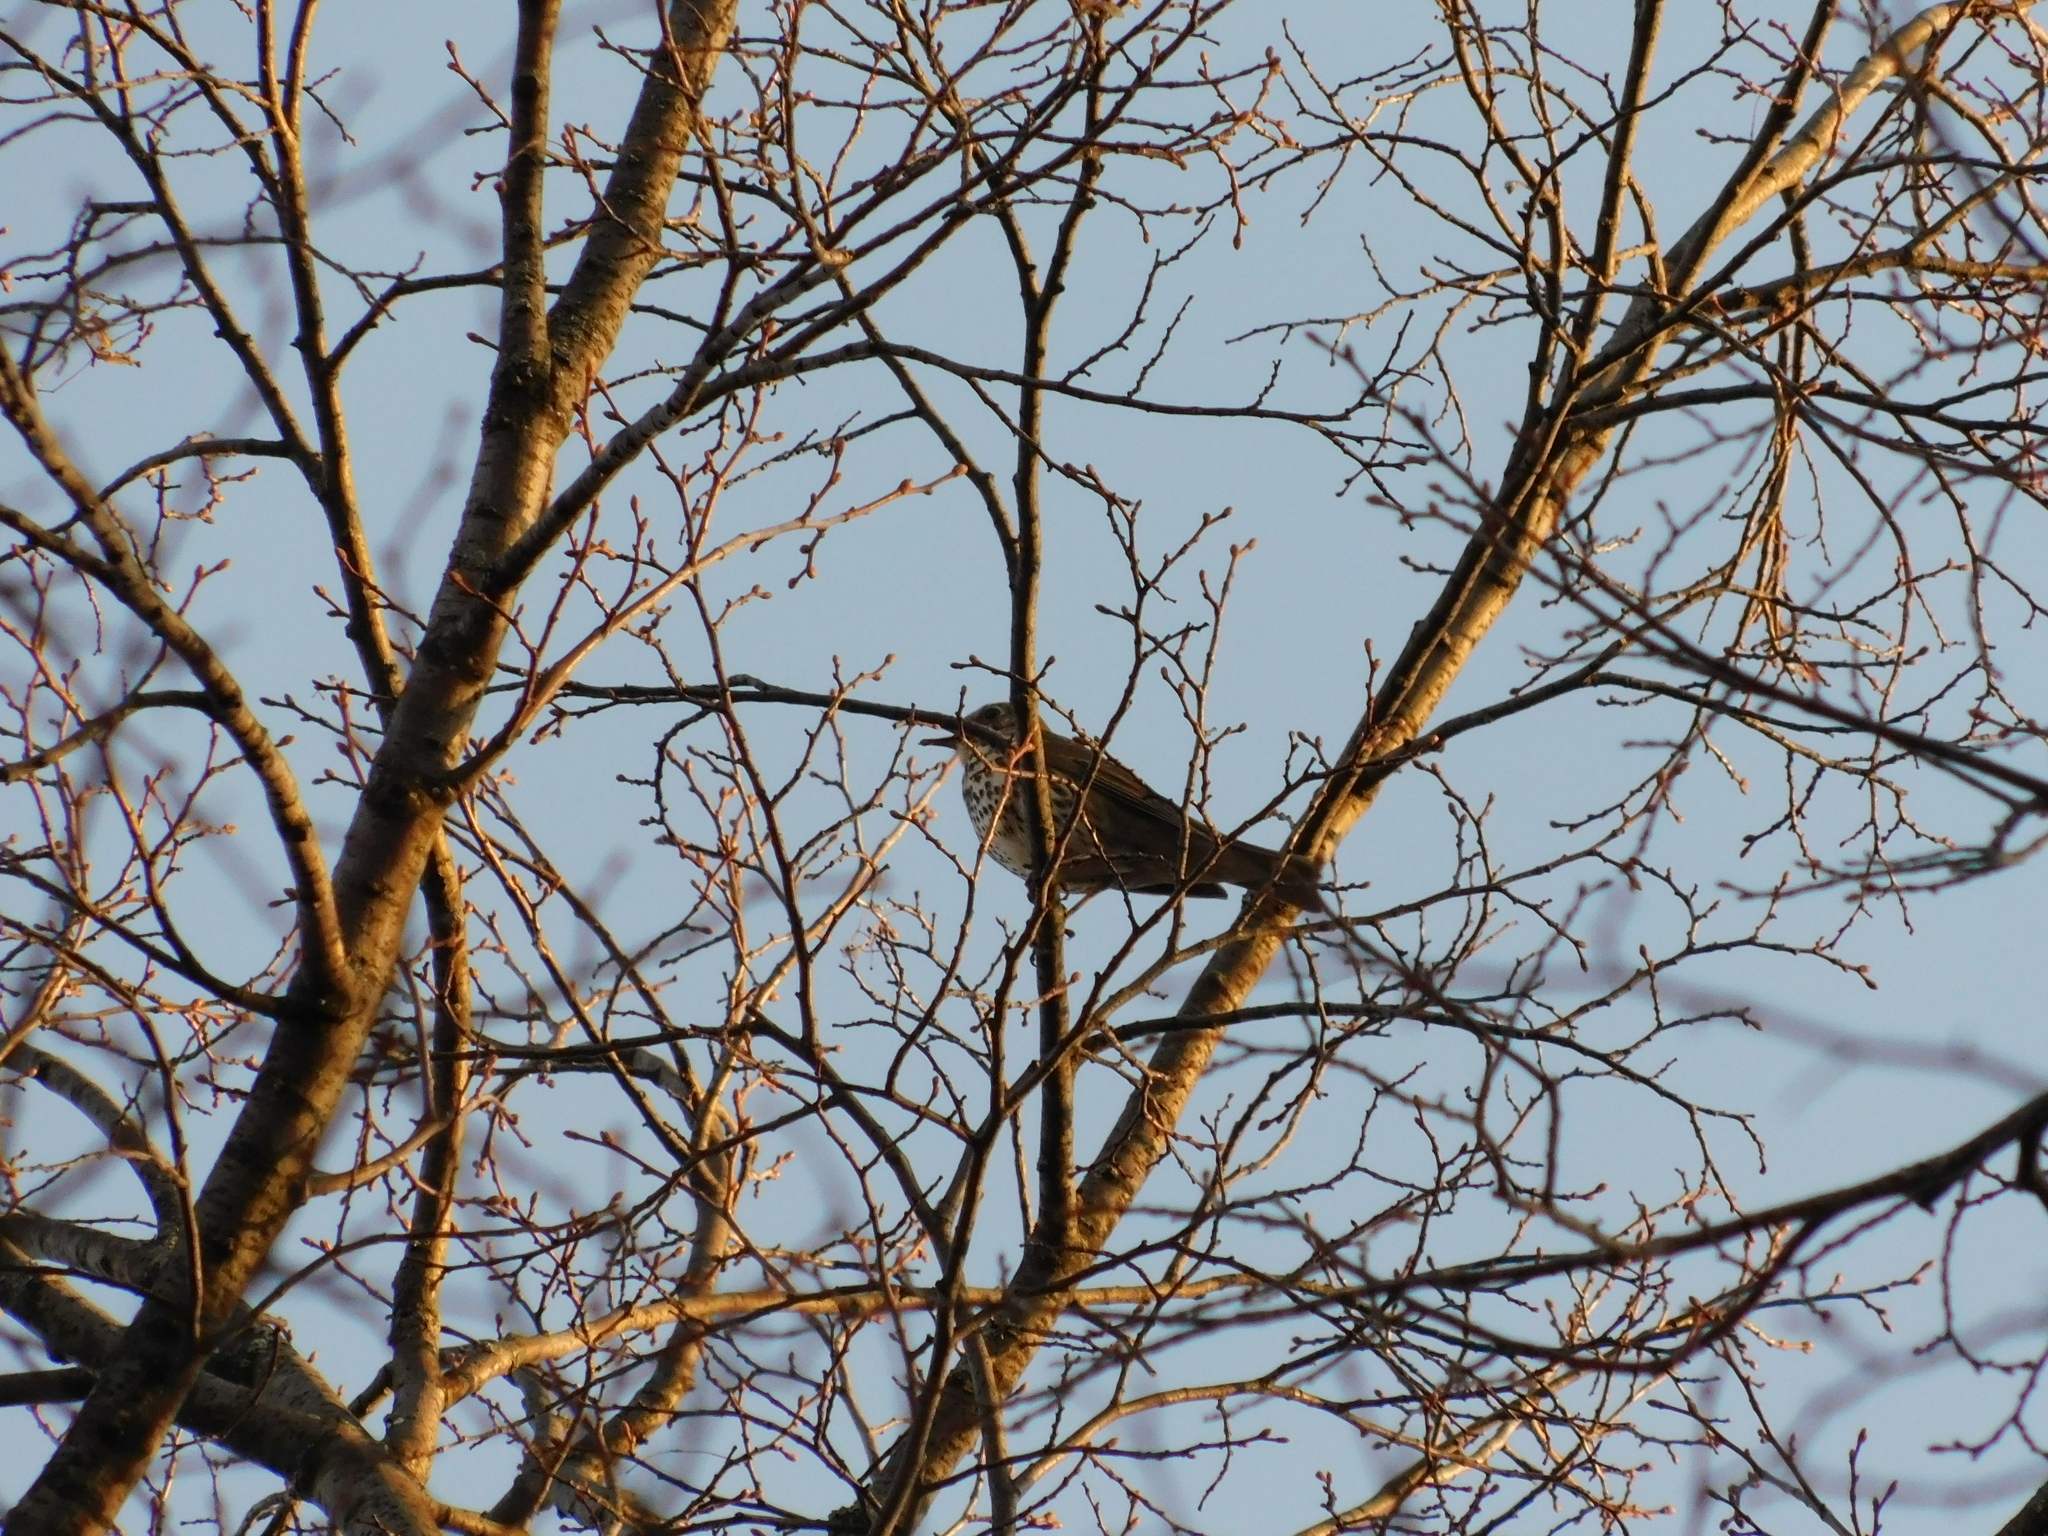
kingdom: Animalia
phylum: Chordata
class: Aves
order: Passeriformes
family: Turdidae
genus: Turdus
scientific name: Turdus philomelos
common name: Song thrush
